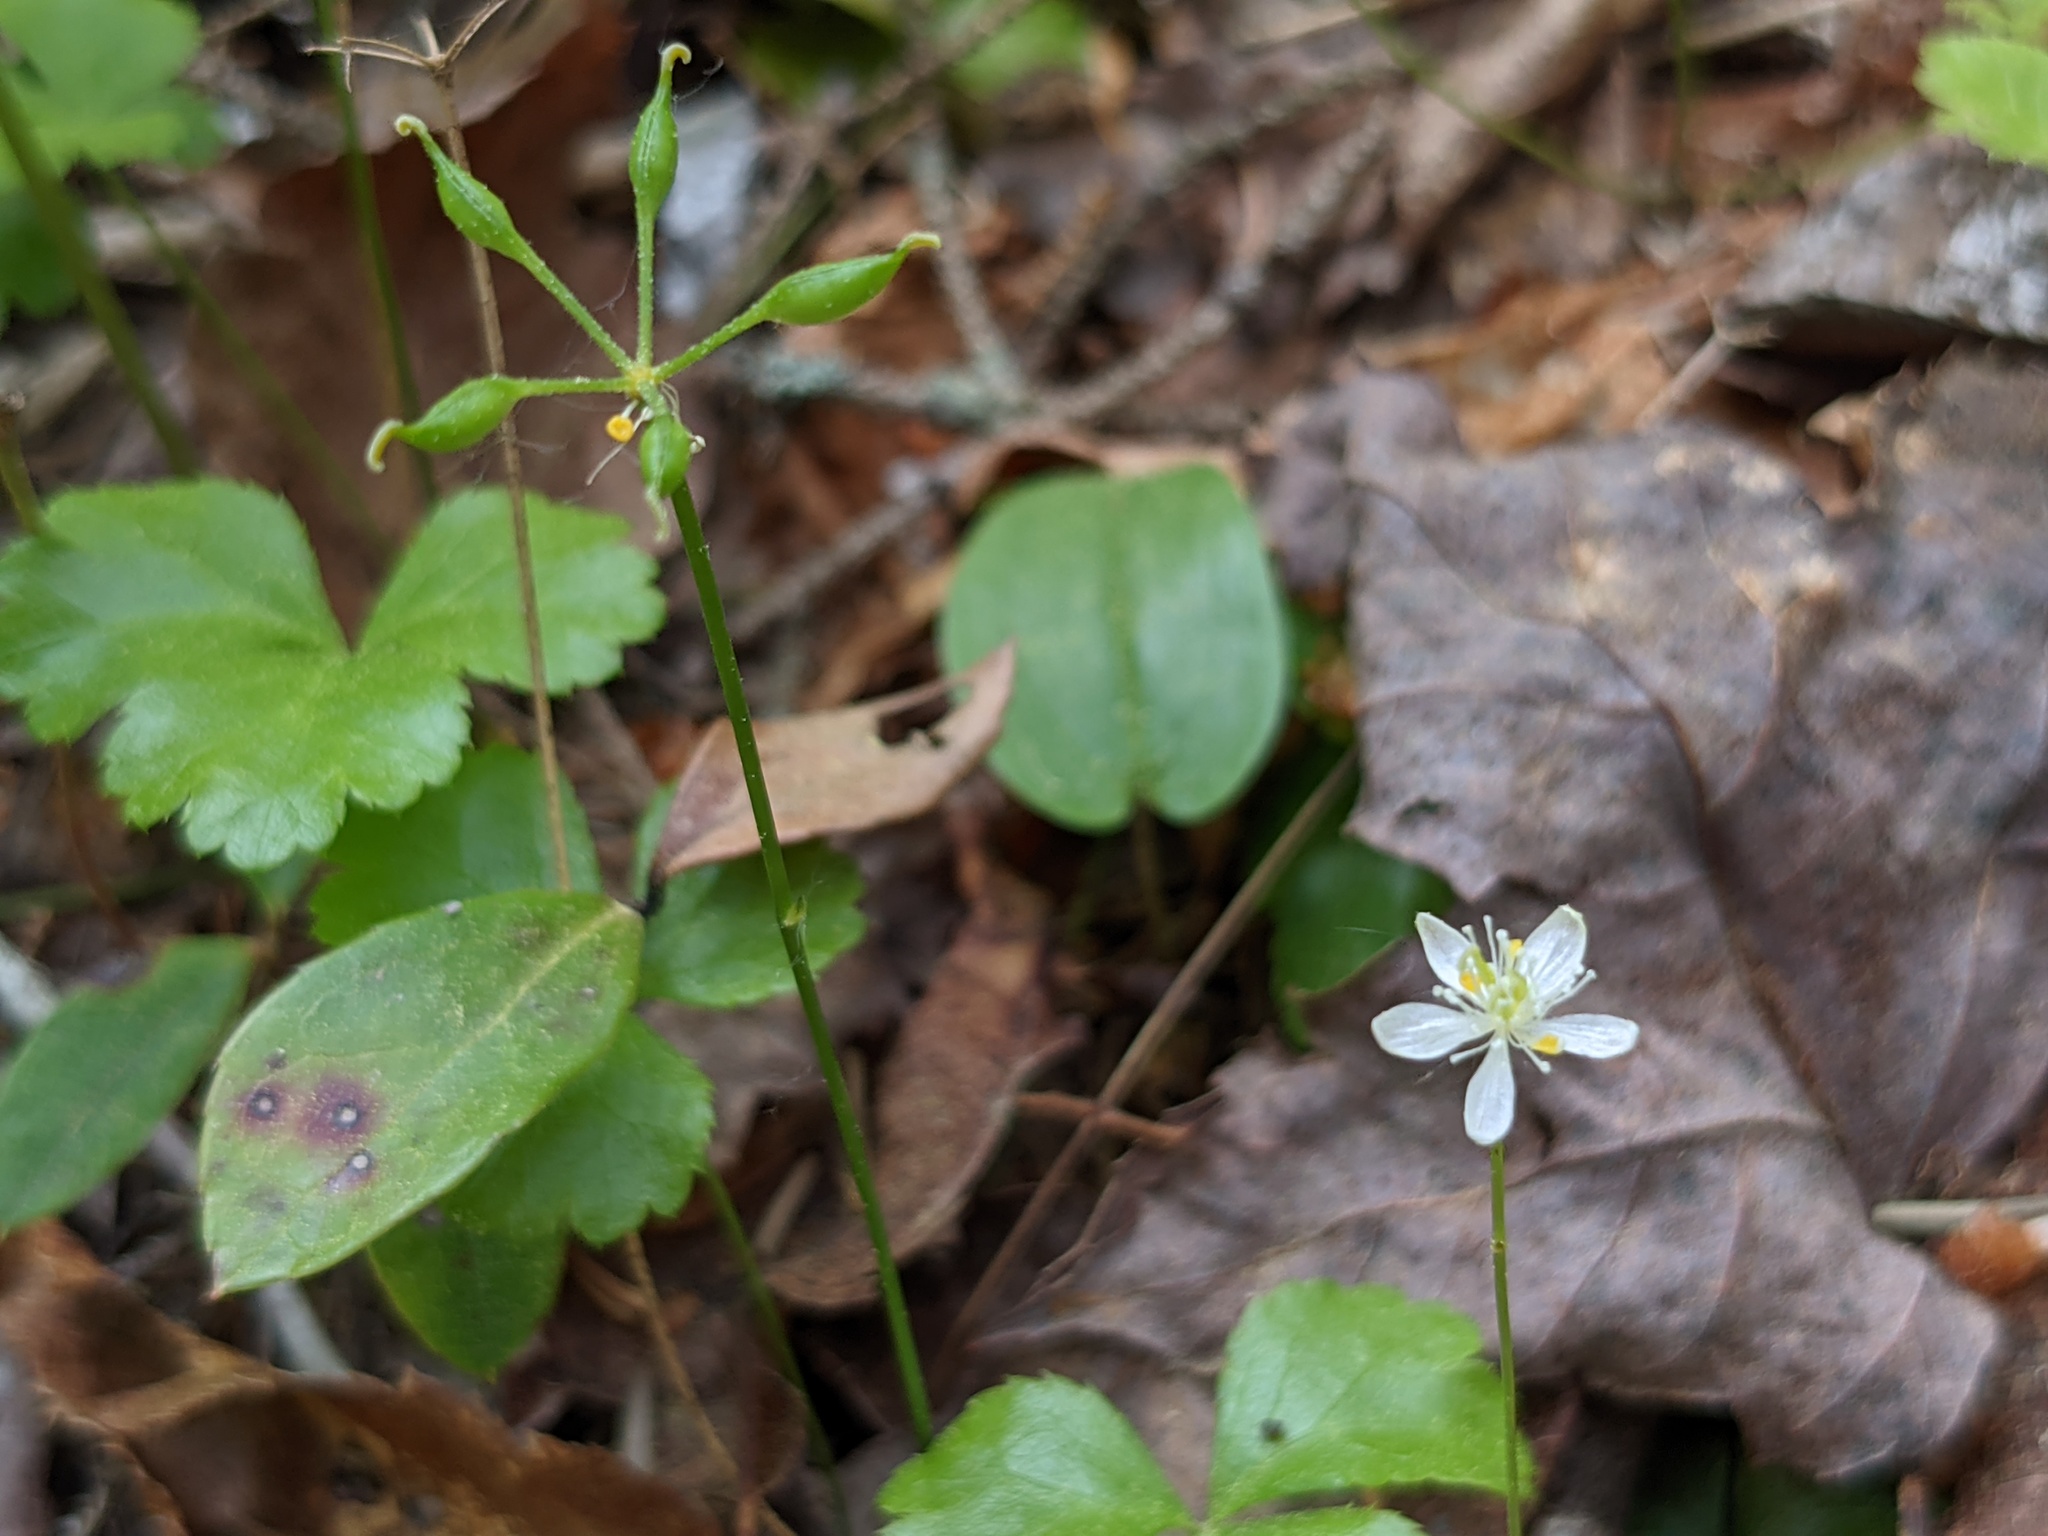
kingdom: Plantae
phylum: Tracheophyta
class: Magnoliopsida
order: Ranunculales
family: Ranunculaceae
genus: Coptis
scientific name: Coptis trifolia
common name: Canker-root
